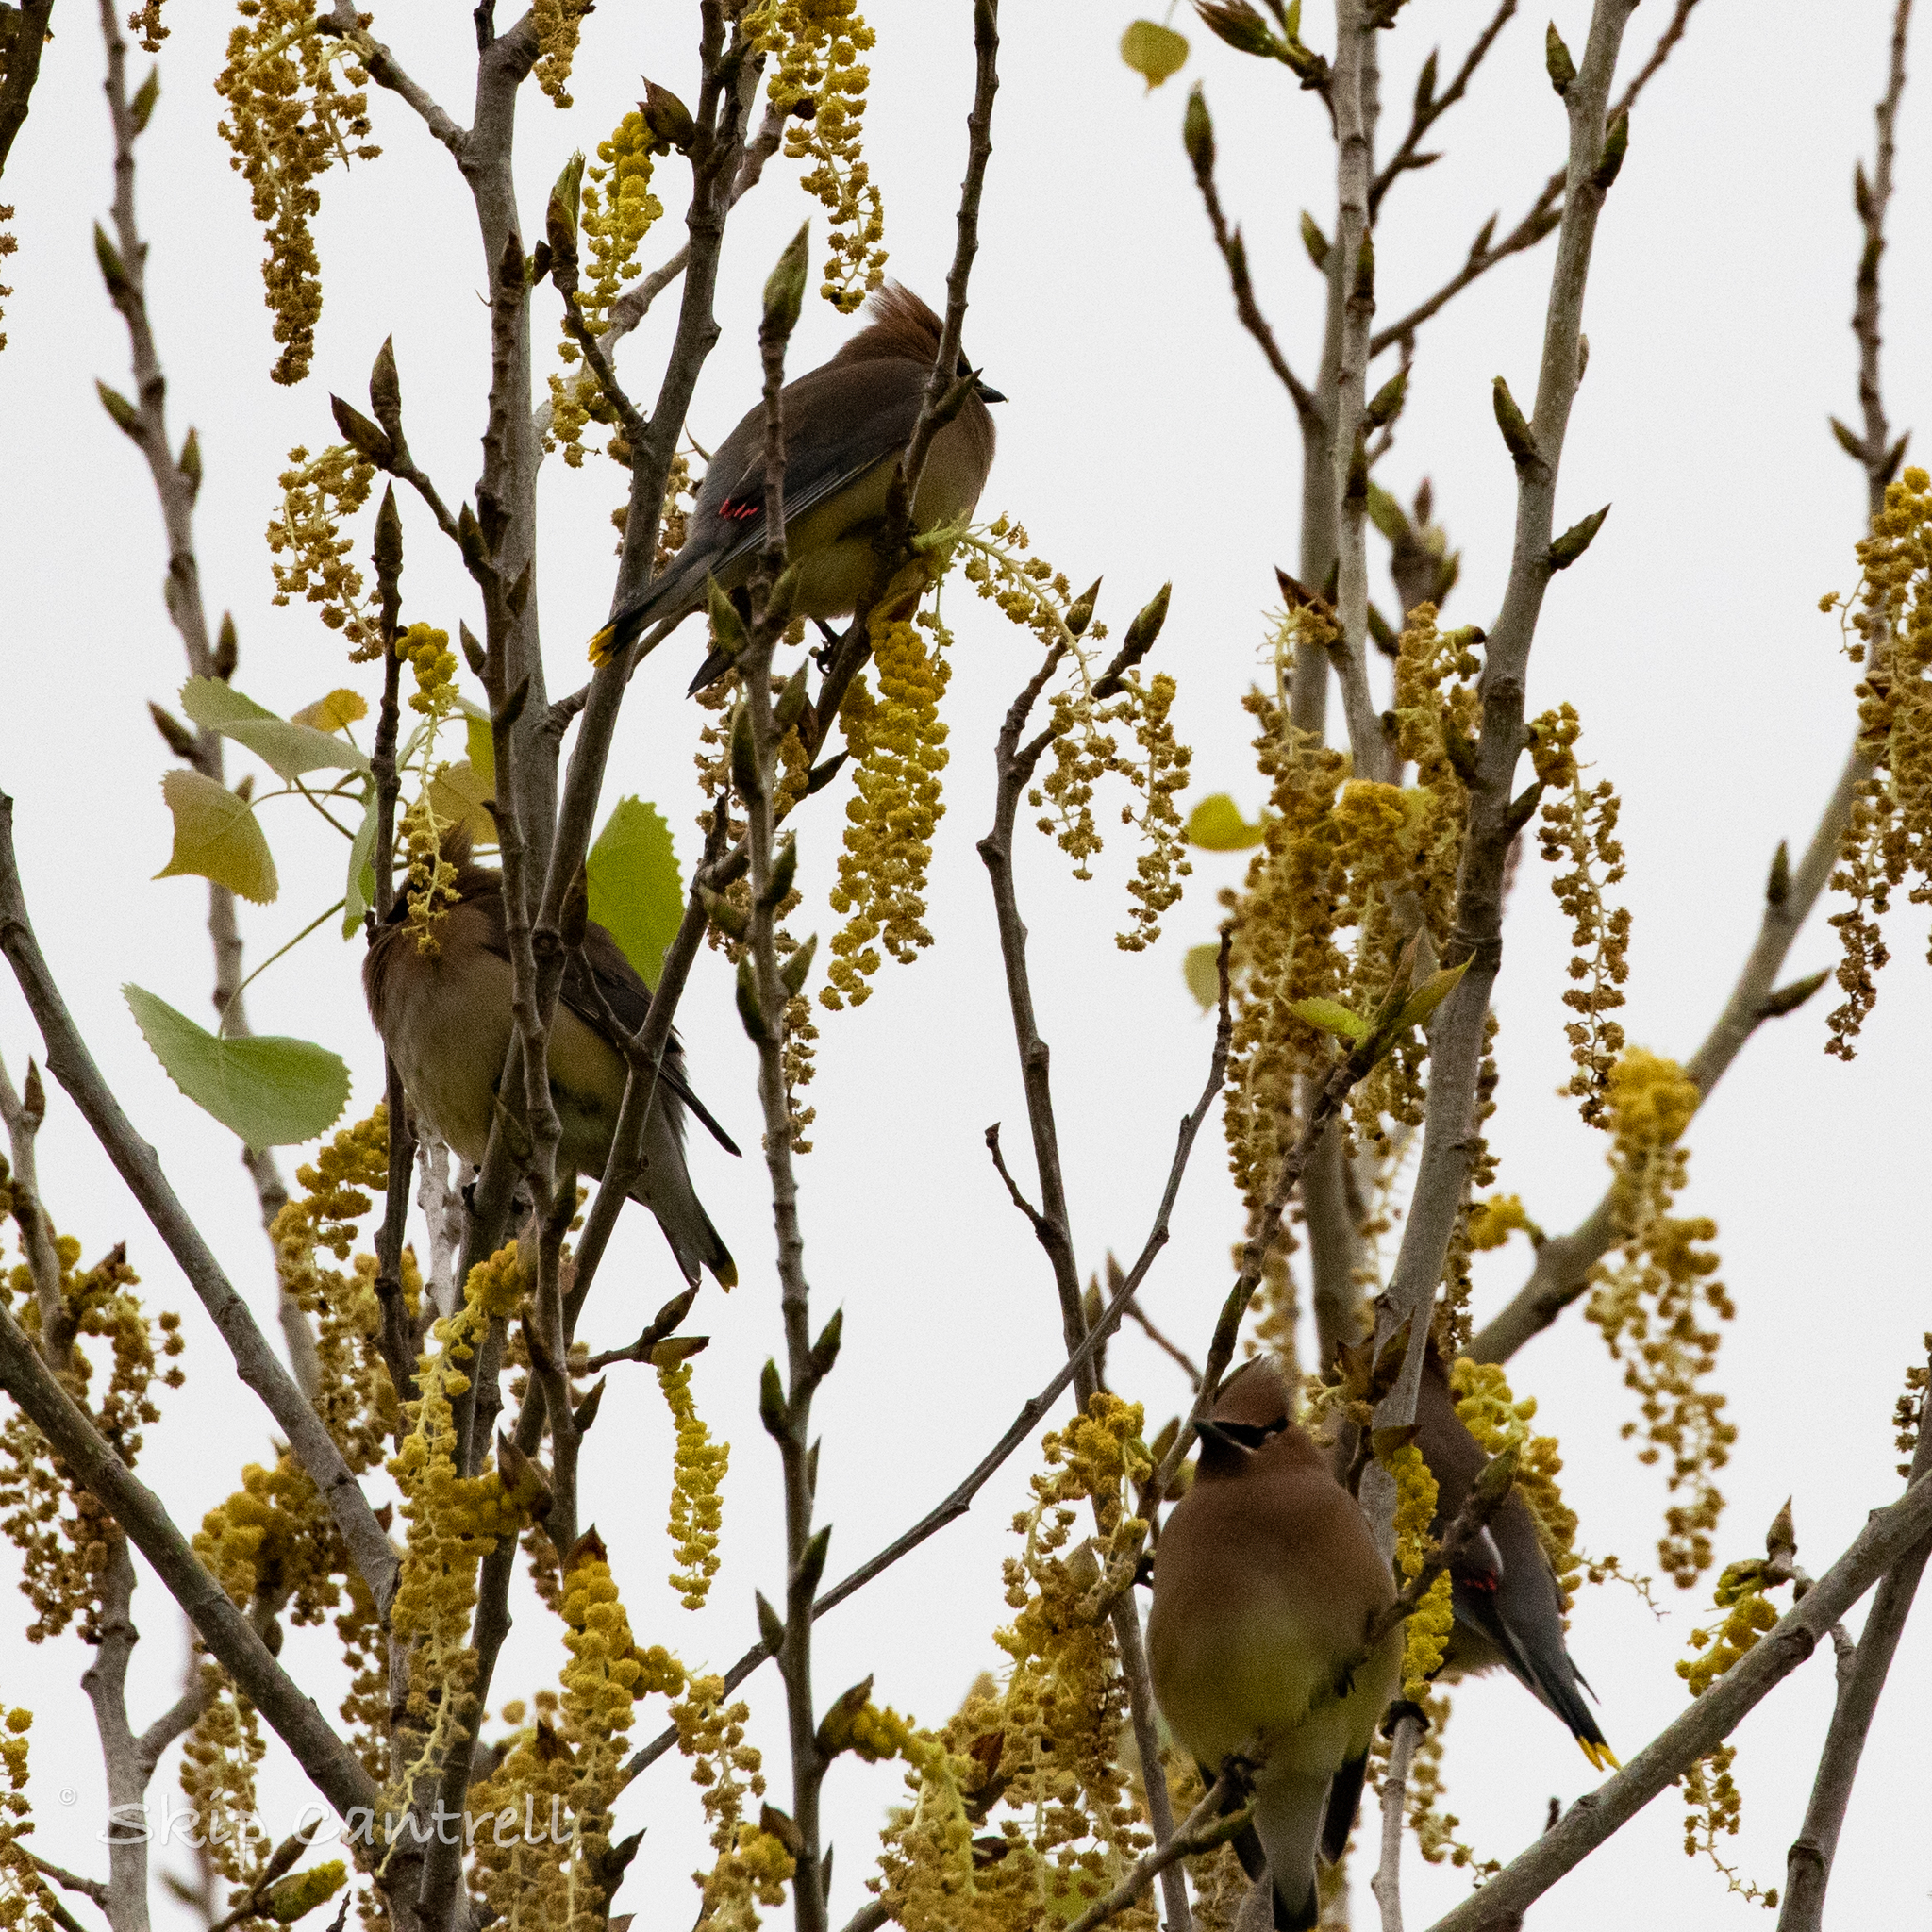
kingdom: Animalia
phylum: Chordata
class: Aves
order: Passeriformes
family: Bombycillidae
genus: Bombycilla
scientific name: Bombycilla cedrorum
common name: Cedar waxwing
